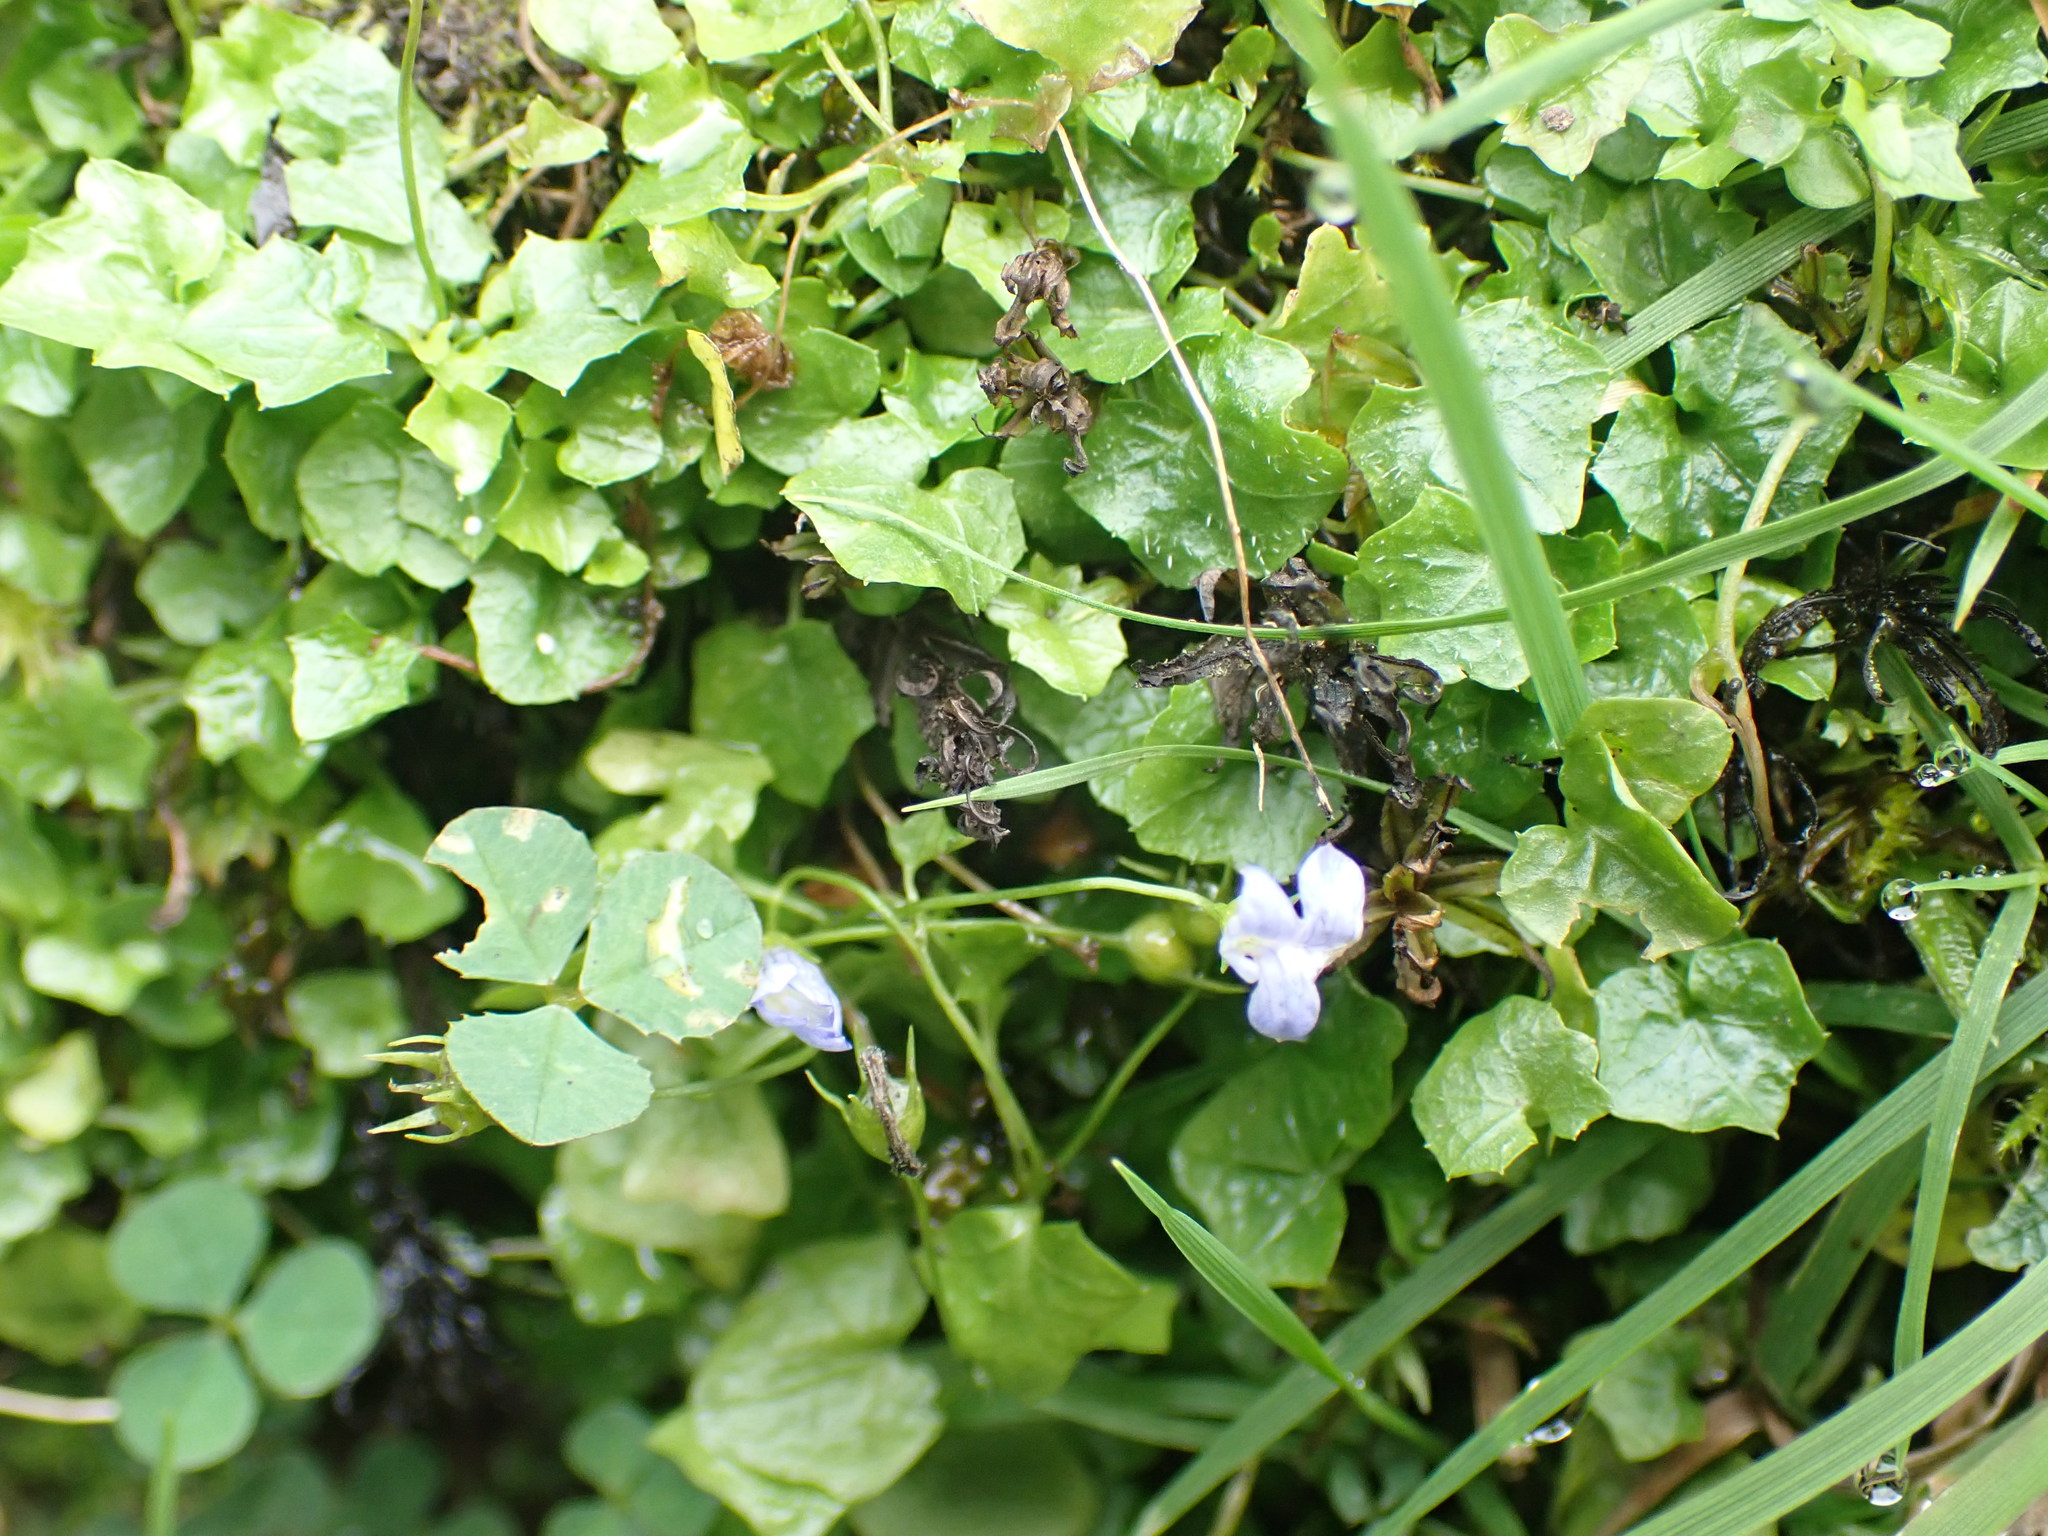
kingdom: Plantae
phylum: Tracheophyta
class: Magnoliopsida
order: Asterales
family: Campanulaceae
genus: Hesperocodon
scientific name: Hesperocodon hederaceus
